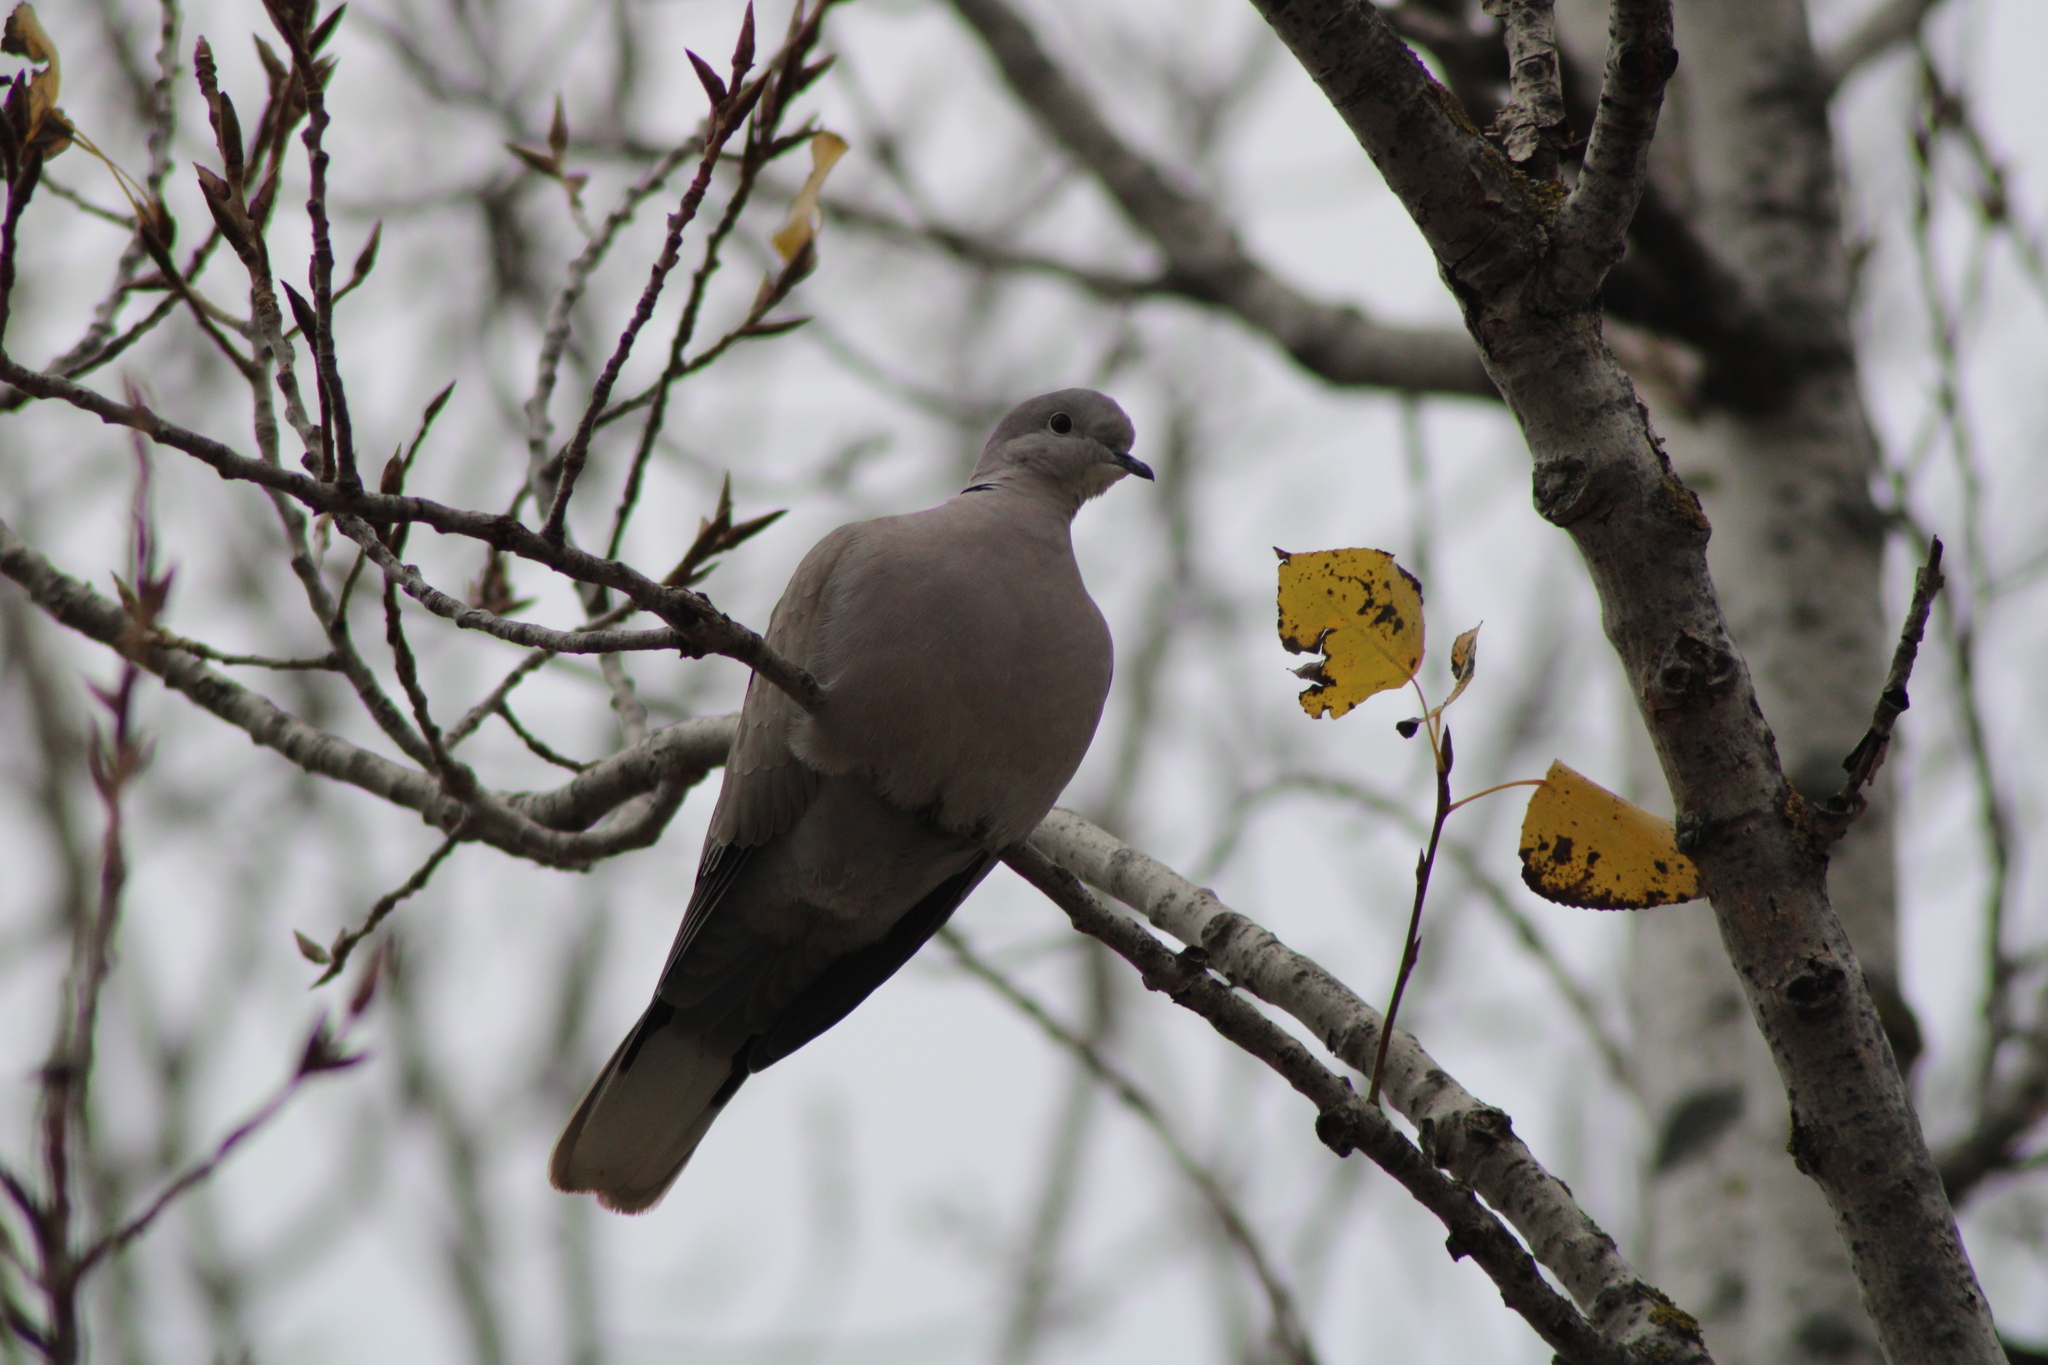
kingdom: Animalia
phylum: Chordata
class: Aves
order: Columbiformes
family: Columbidae
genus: Streptopelia
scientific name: Streptopelia decaocto
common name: Eurasian collared dove
